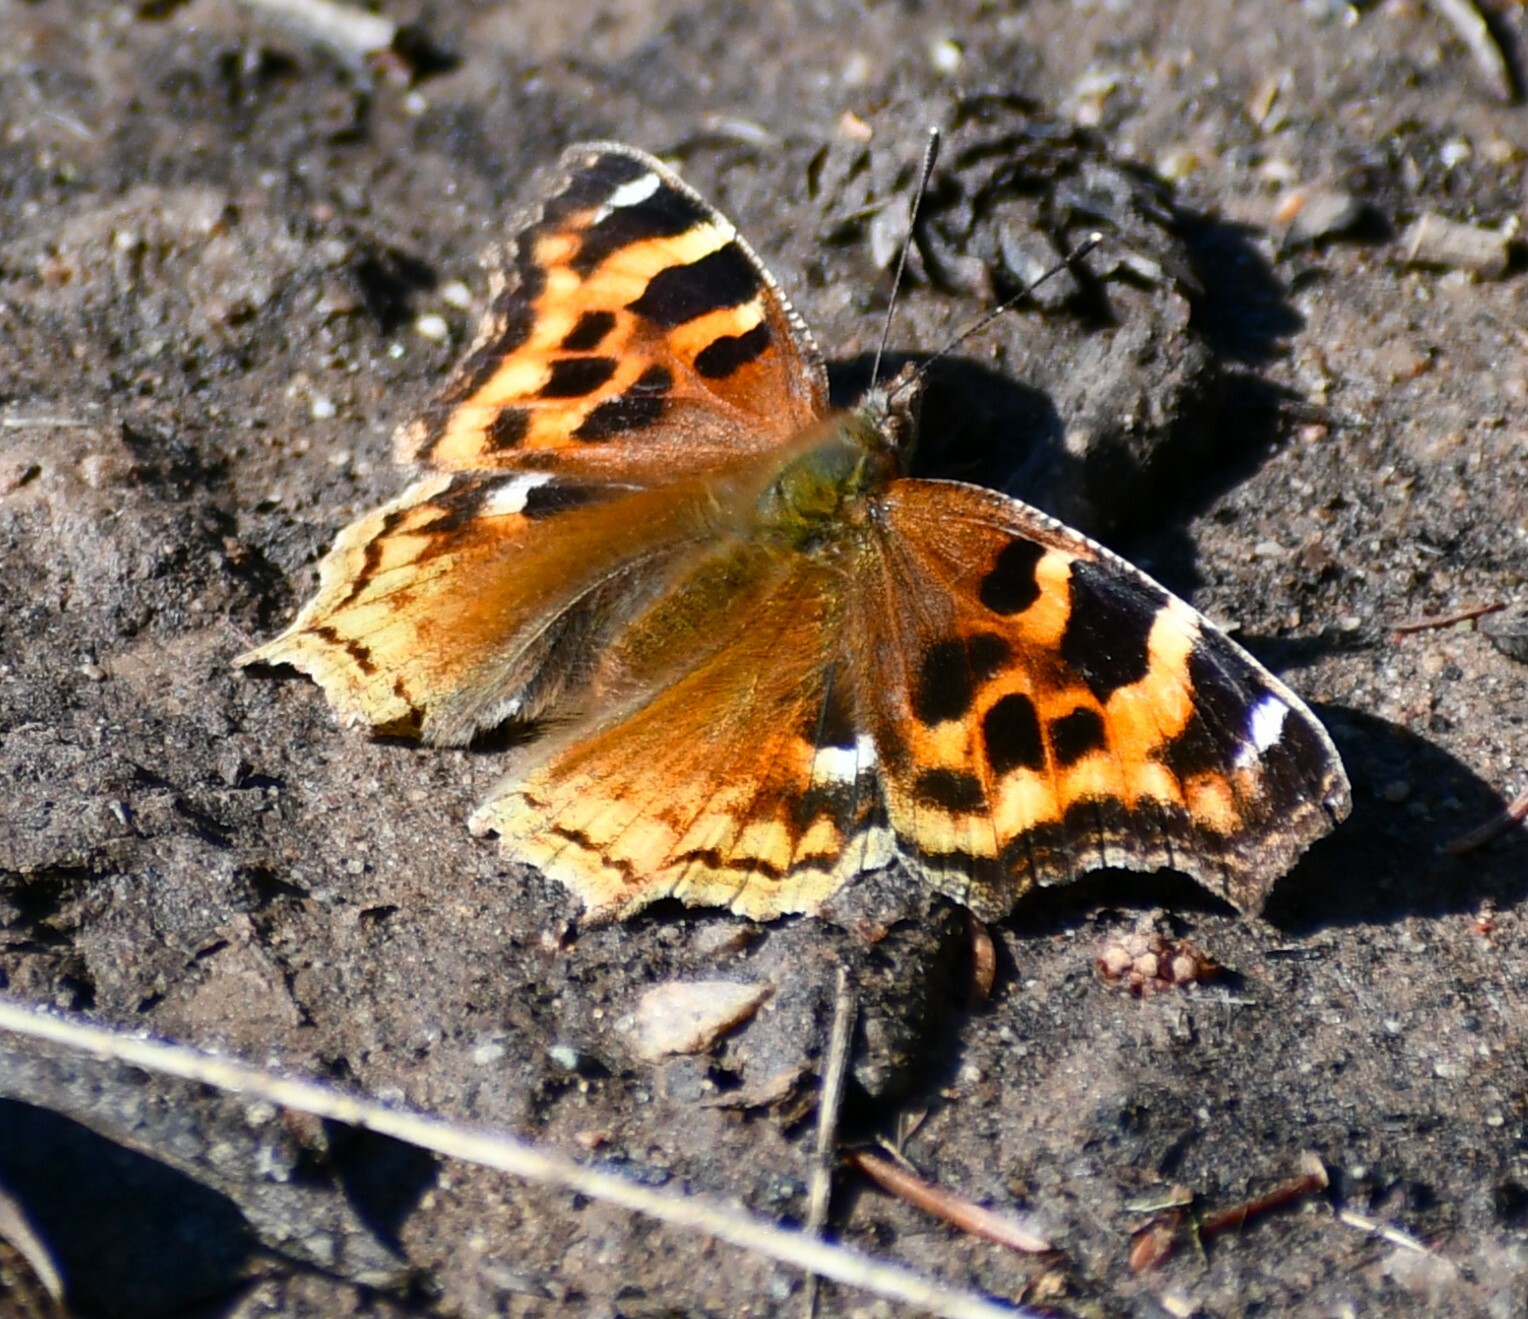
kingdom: Animalia
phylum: Arthropoda
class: Insecta
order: Lepidoptera
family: Nymphalidae
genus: Polygonia
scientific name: Polygonia vaualbum
